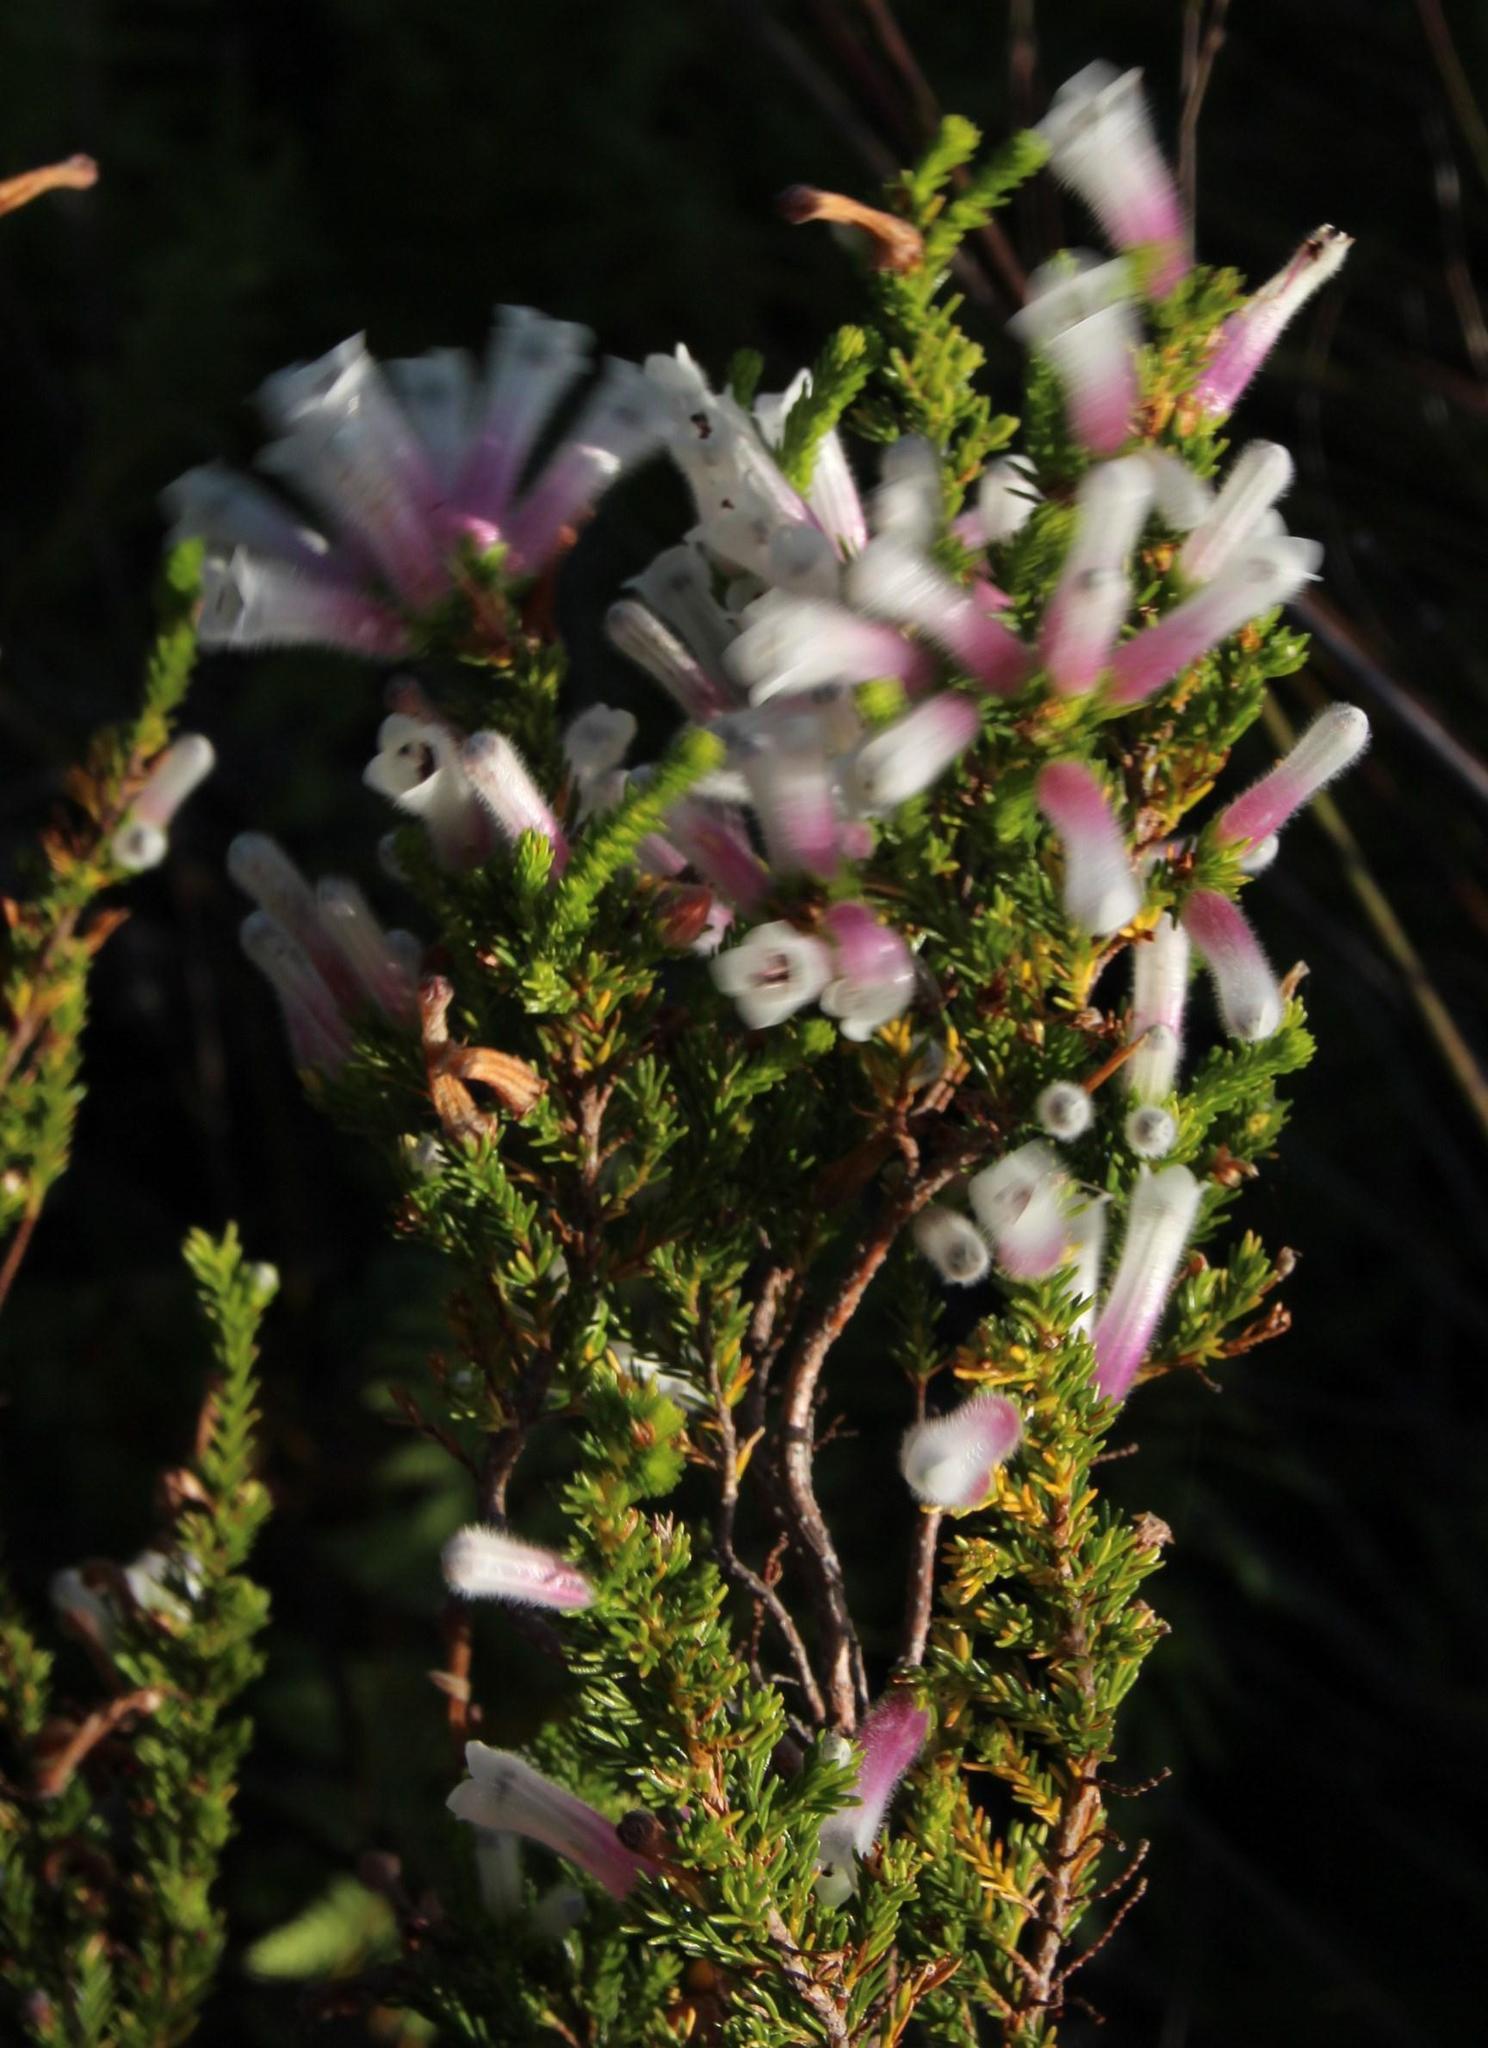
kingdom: Plantae
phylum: Tracheophyta
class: Magnoliopsida
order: Ericales
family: Ericaceae
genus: Erica
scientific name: Erica perspicua
